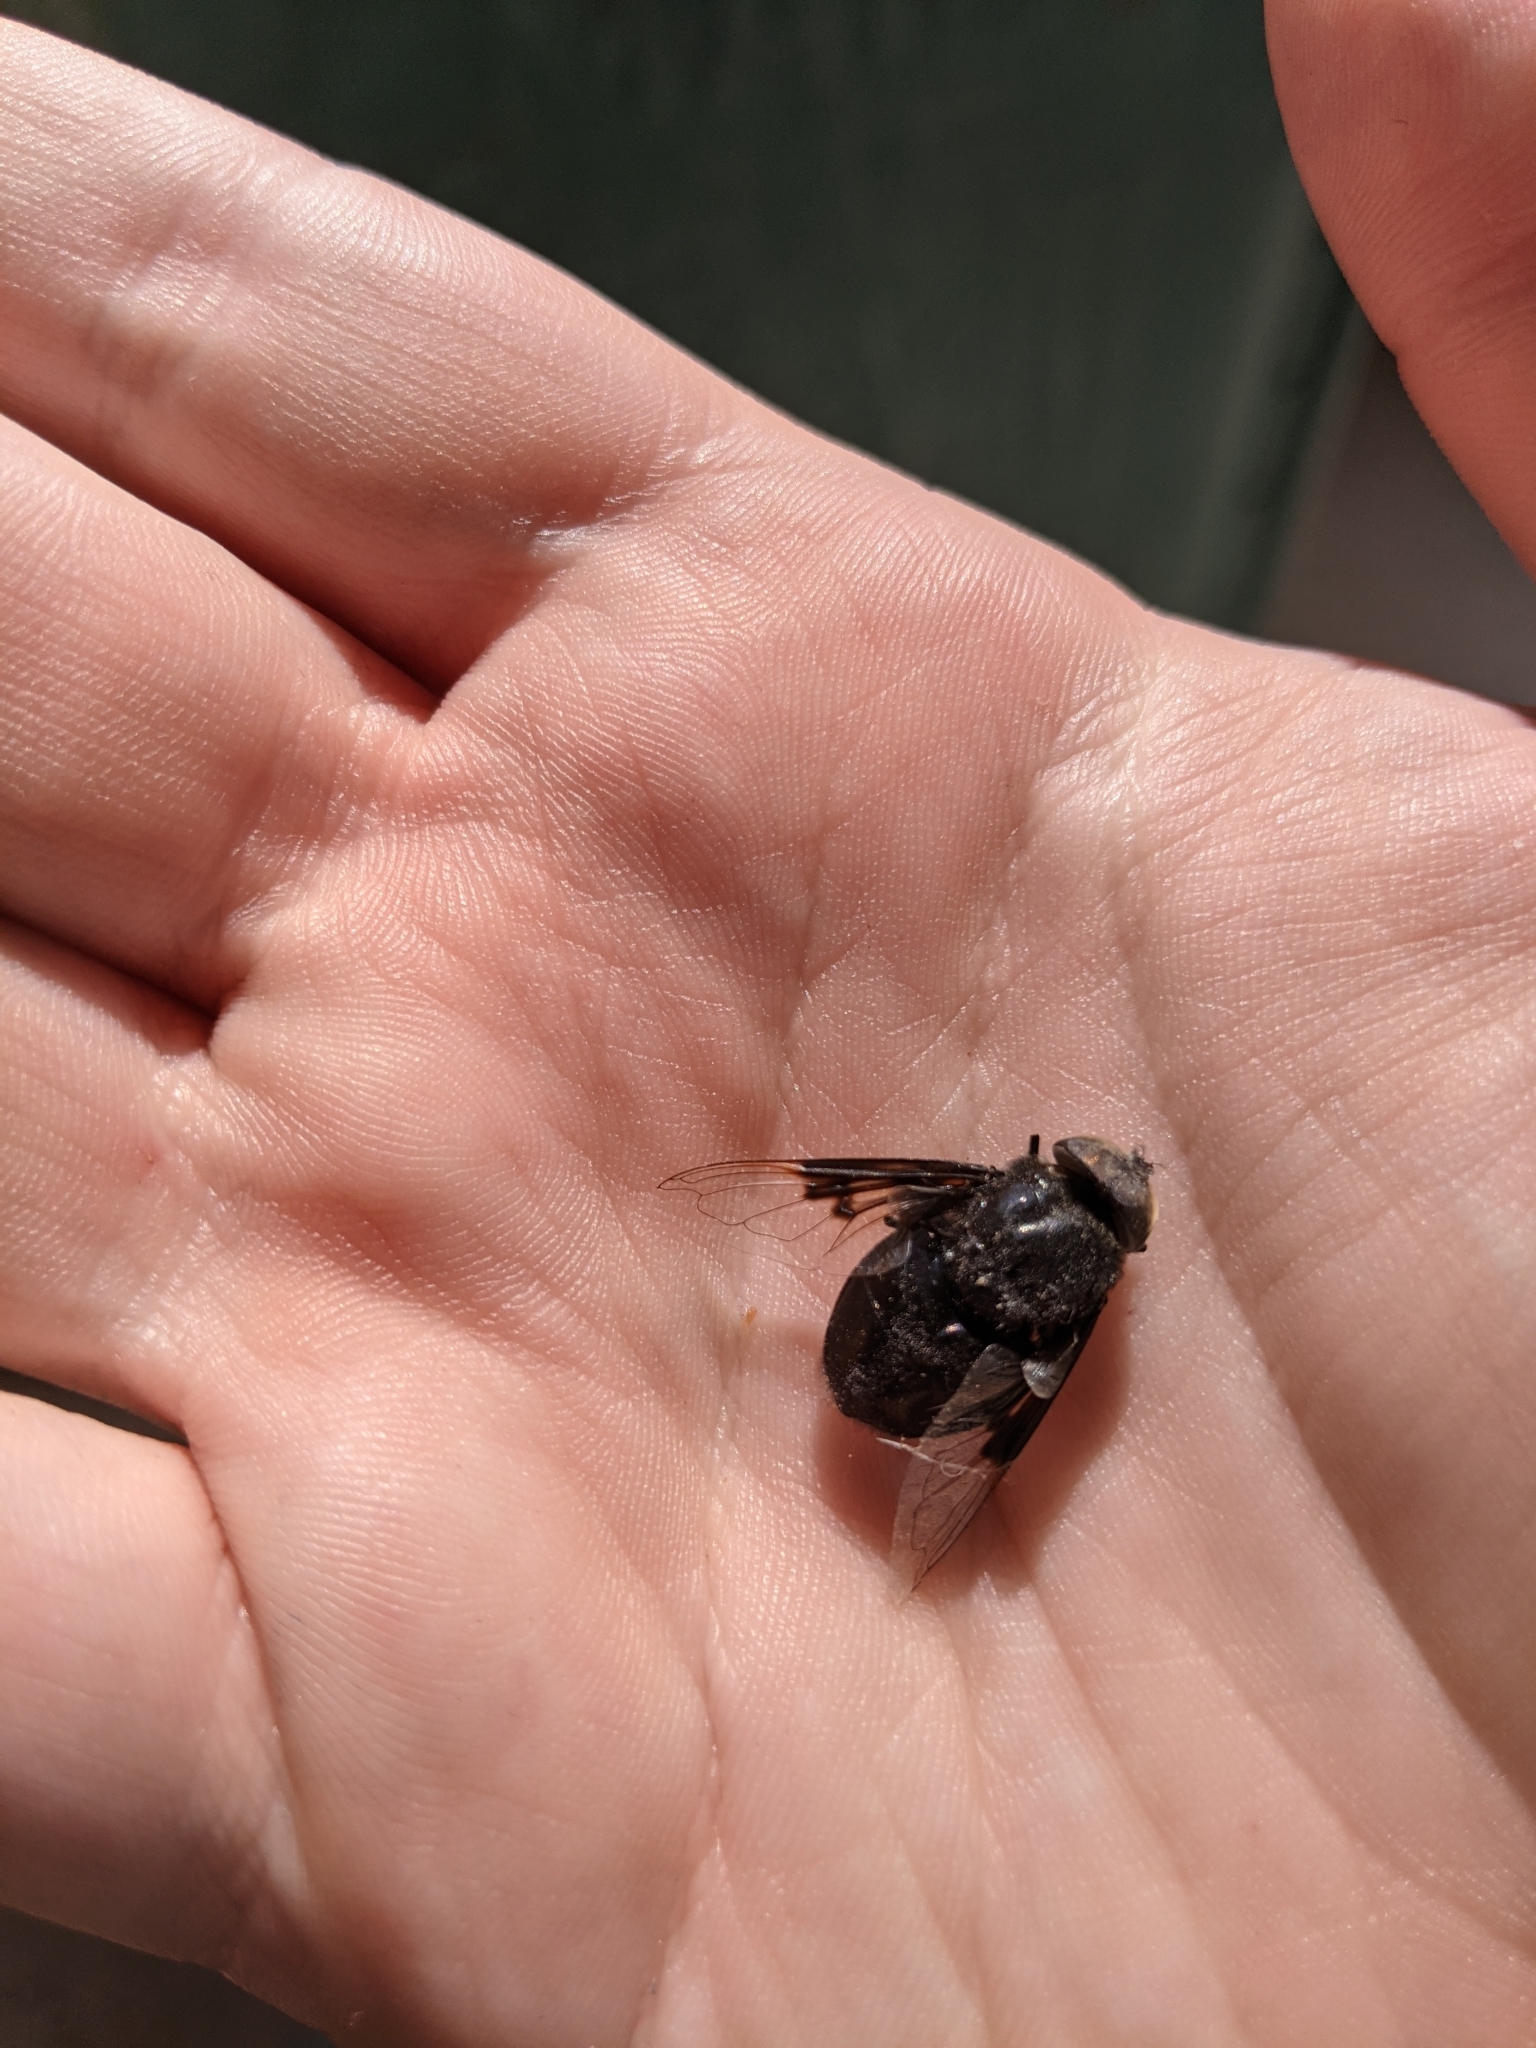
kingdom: Animalia
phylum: Arthropoda
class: Insecta
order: Diptera
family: Syrphidae
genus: Copestylum
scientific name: Copestylum mexicanum
